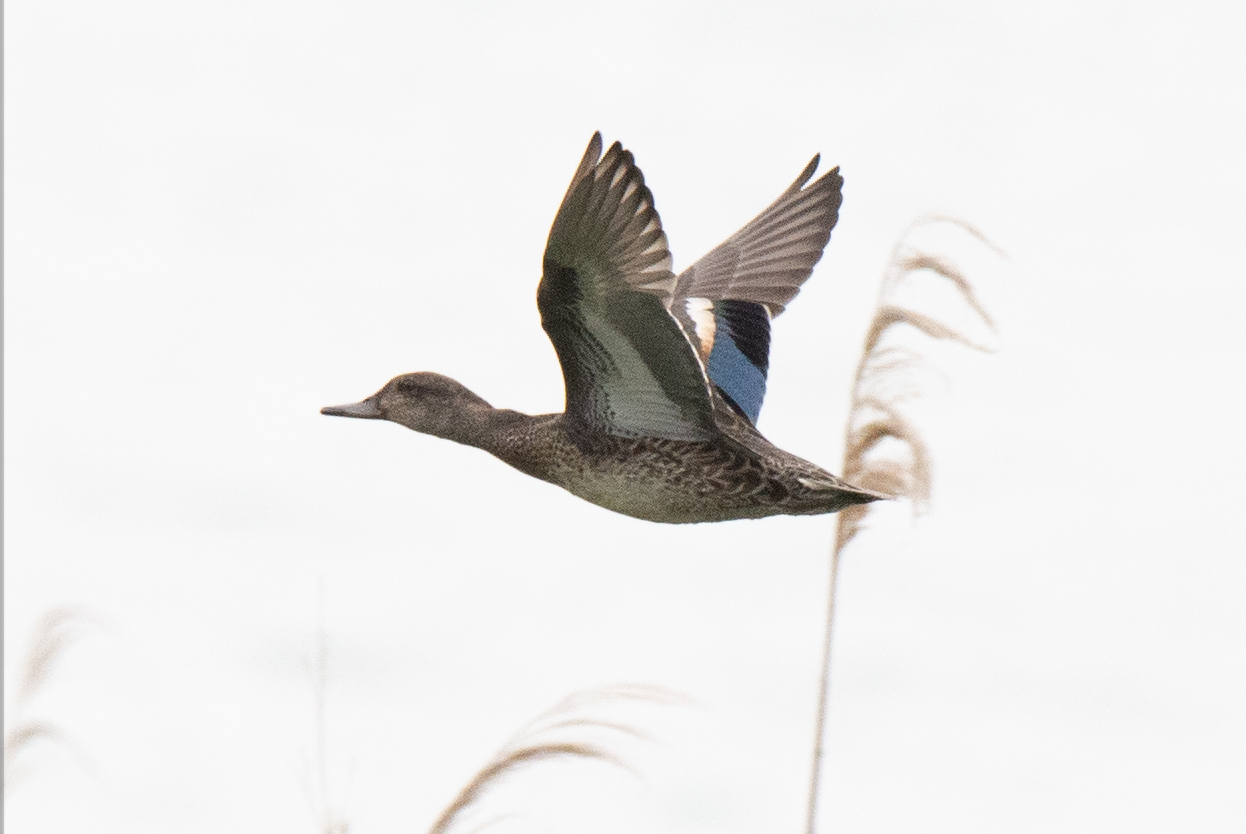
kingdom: Animalia
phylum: Chordata
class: Aves
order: Anseriformes
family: Anatidae
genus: Anas
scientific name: Anas crecca
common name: Eurasian teal
